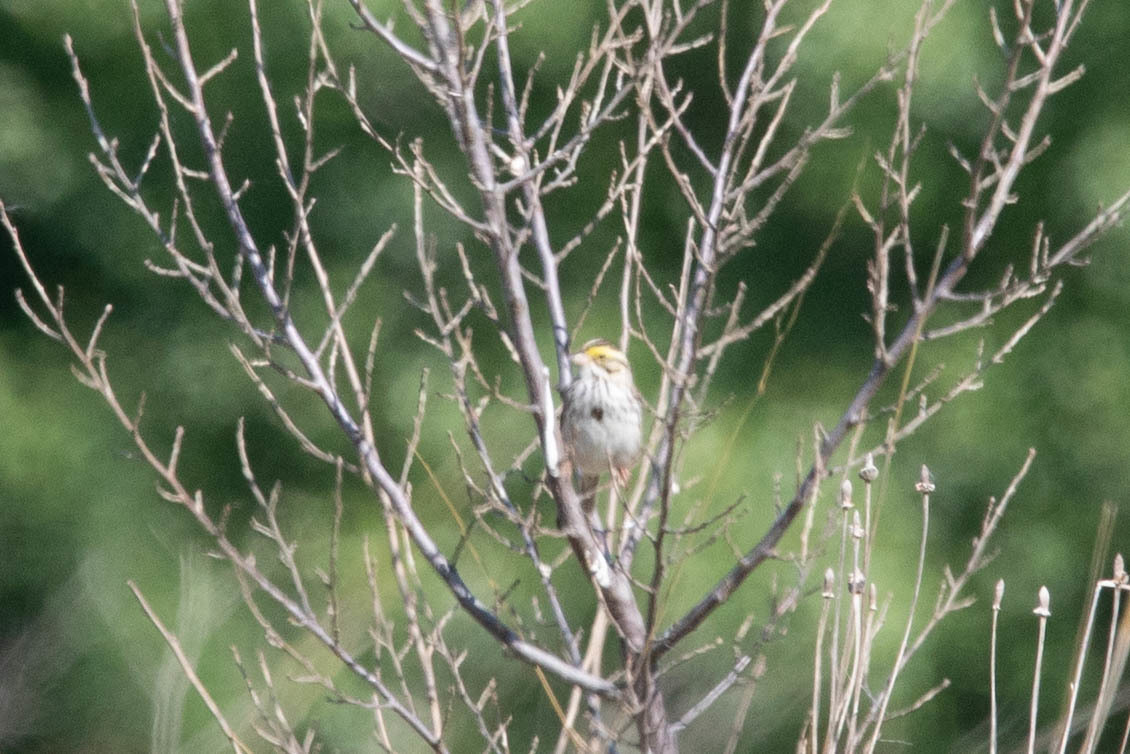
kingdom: Animalia
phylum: Chordata
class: Aves
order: Passeriformes
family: Passerellidae
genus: Passerculus
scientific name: Passerculus sandwichensis
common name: Savannah sparrow
